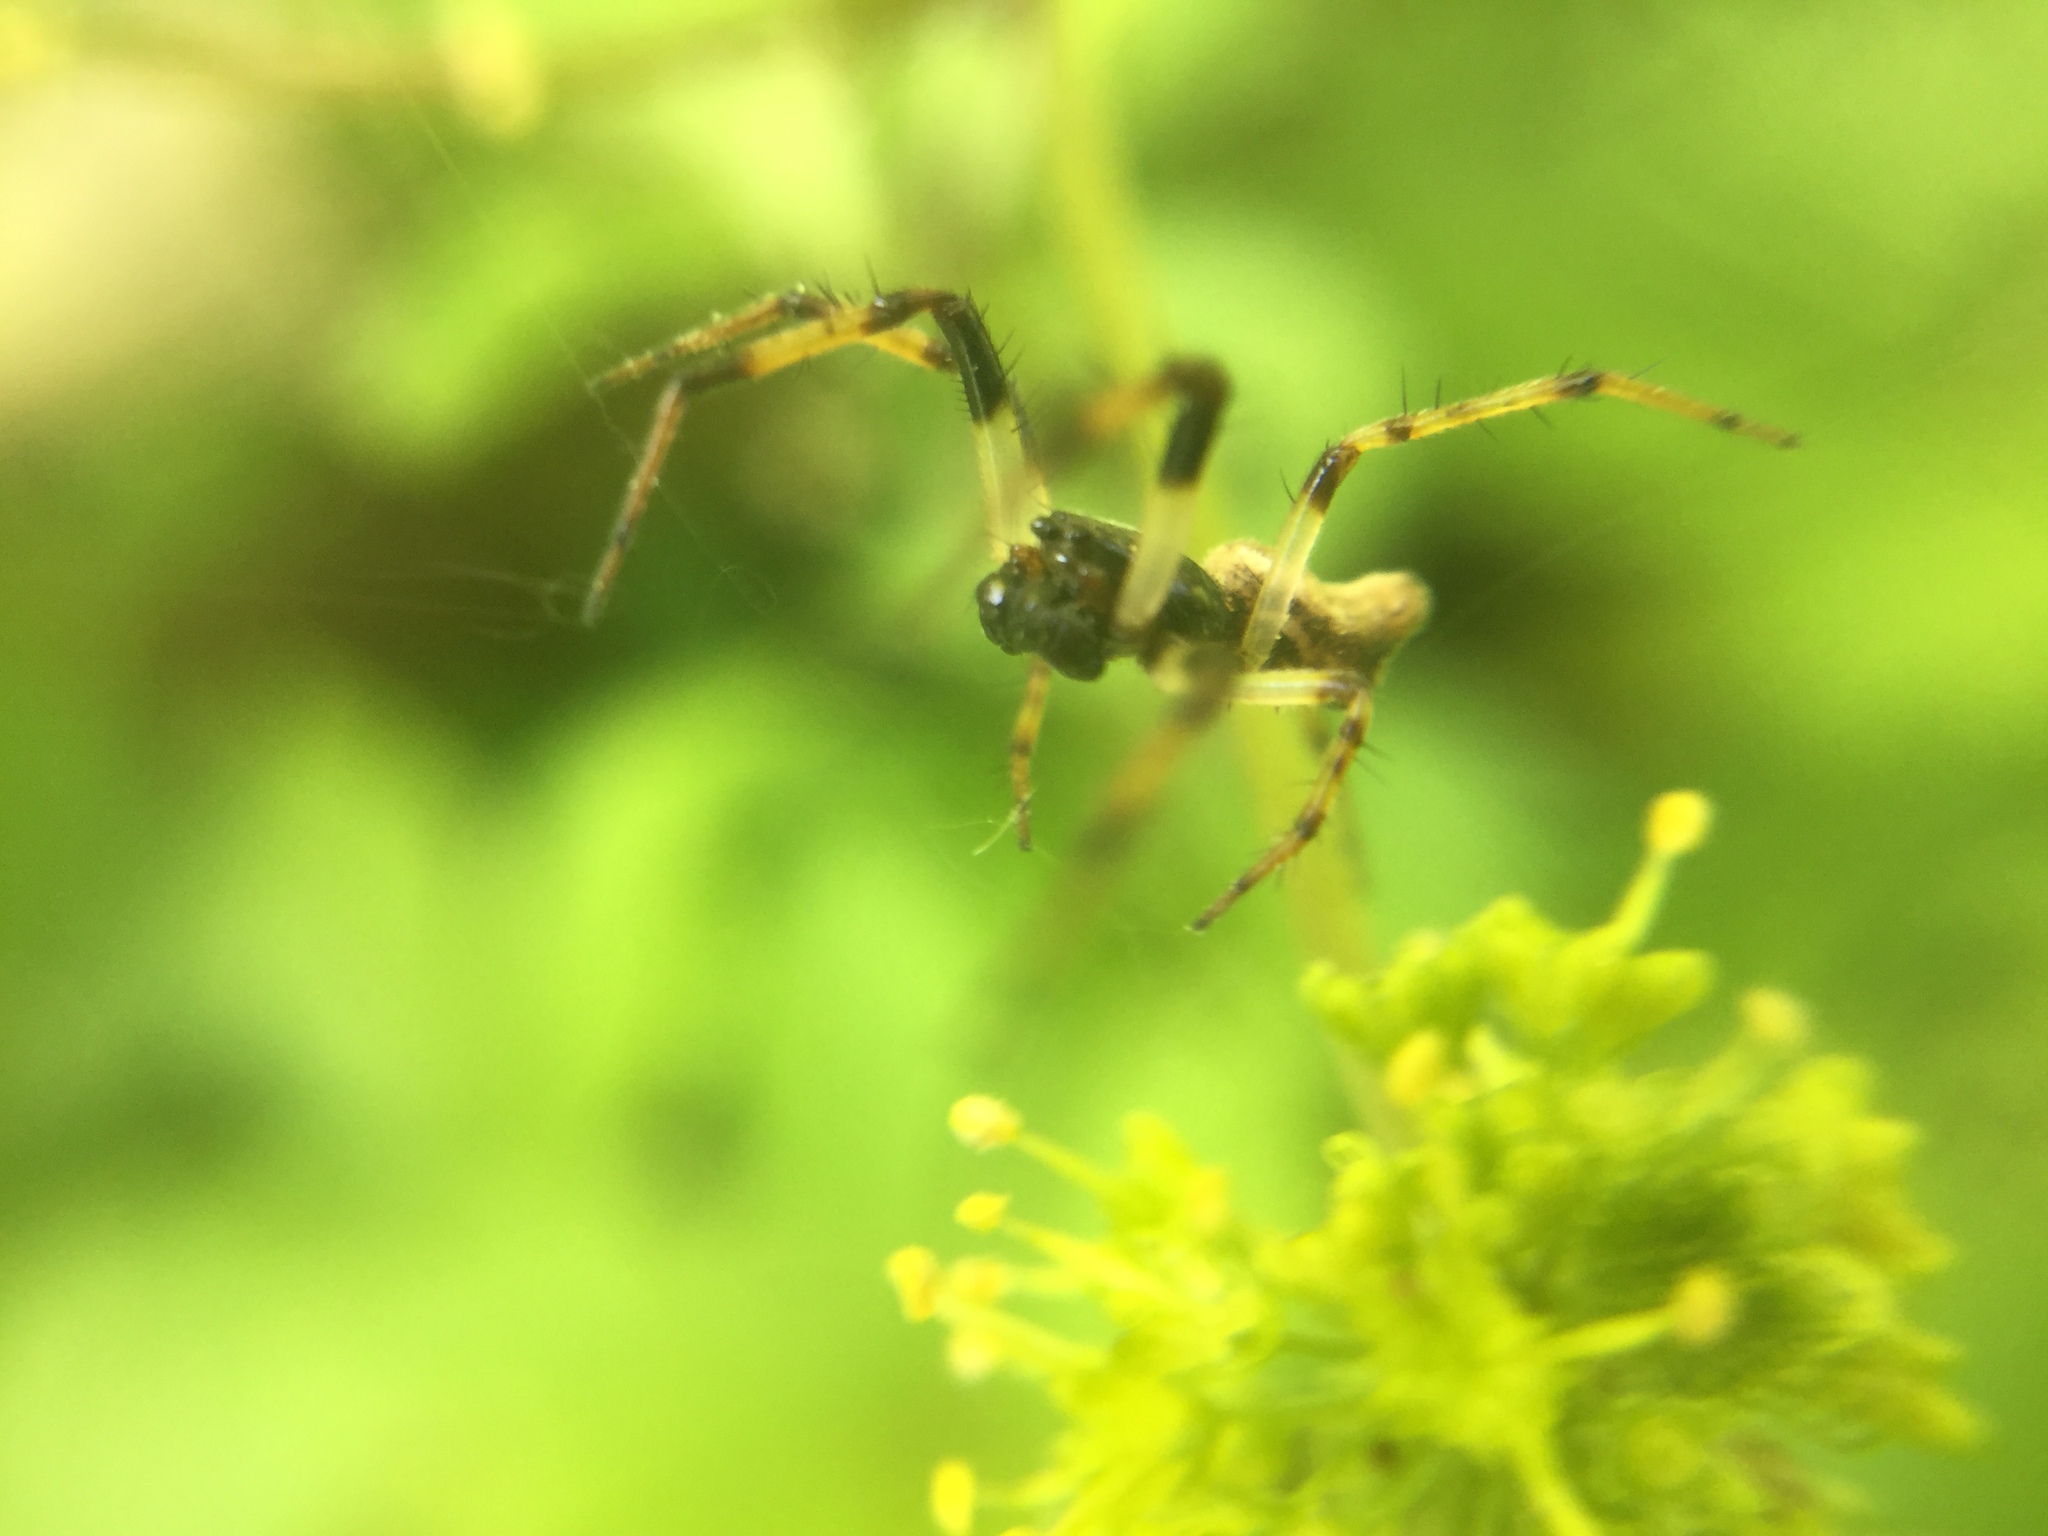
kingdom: Animalia
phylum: Arthropoda
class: Arachnida
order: Araneae
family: Araneidae
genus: Cyclosa
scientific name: Cyclosa conica
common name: Conical trashline orbweaver
